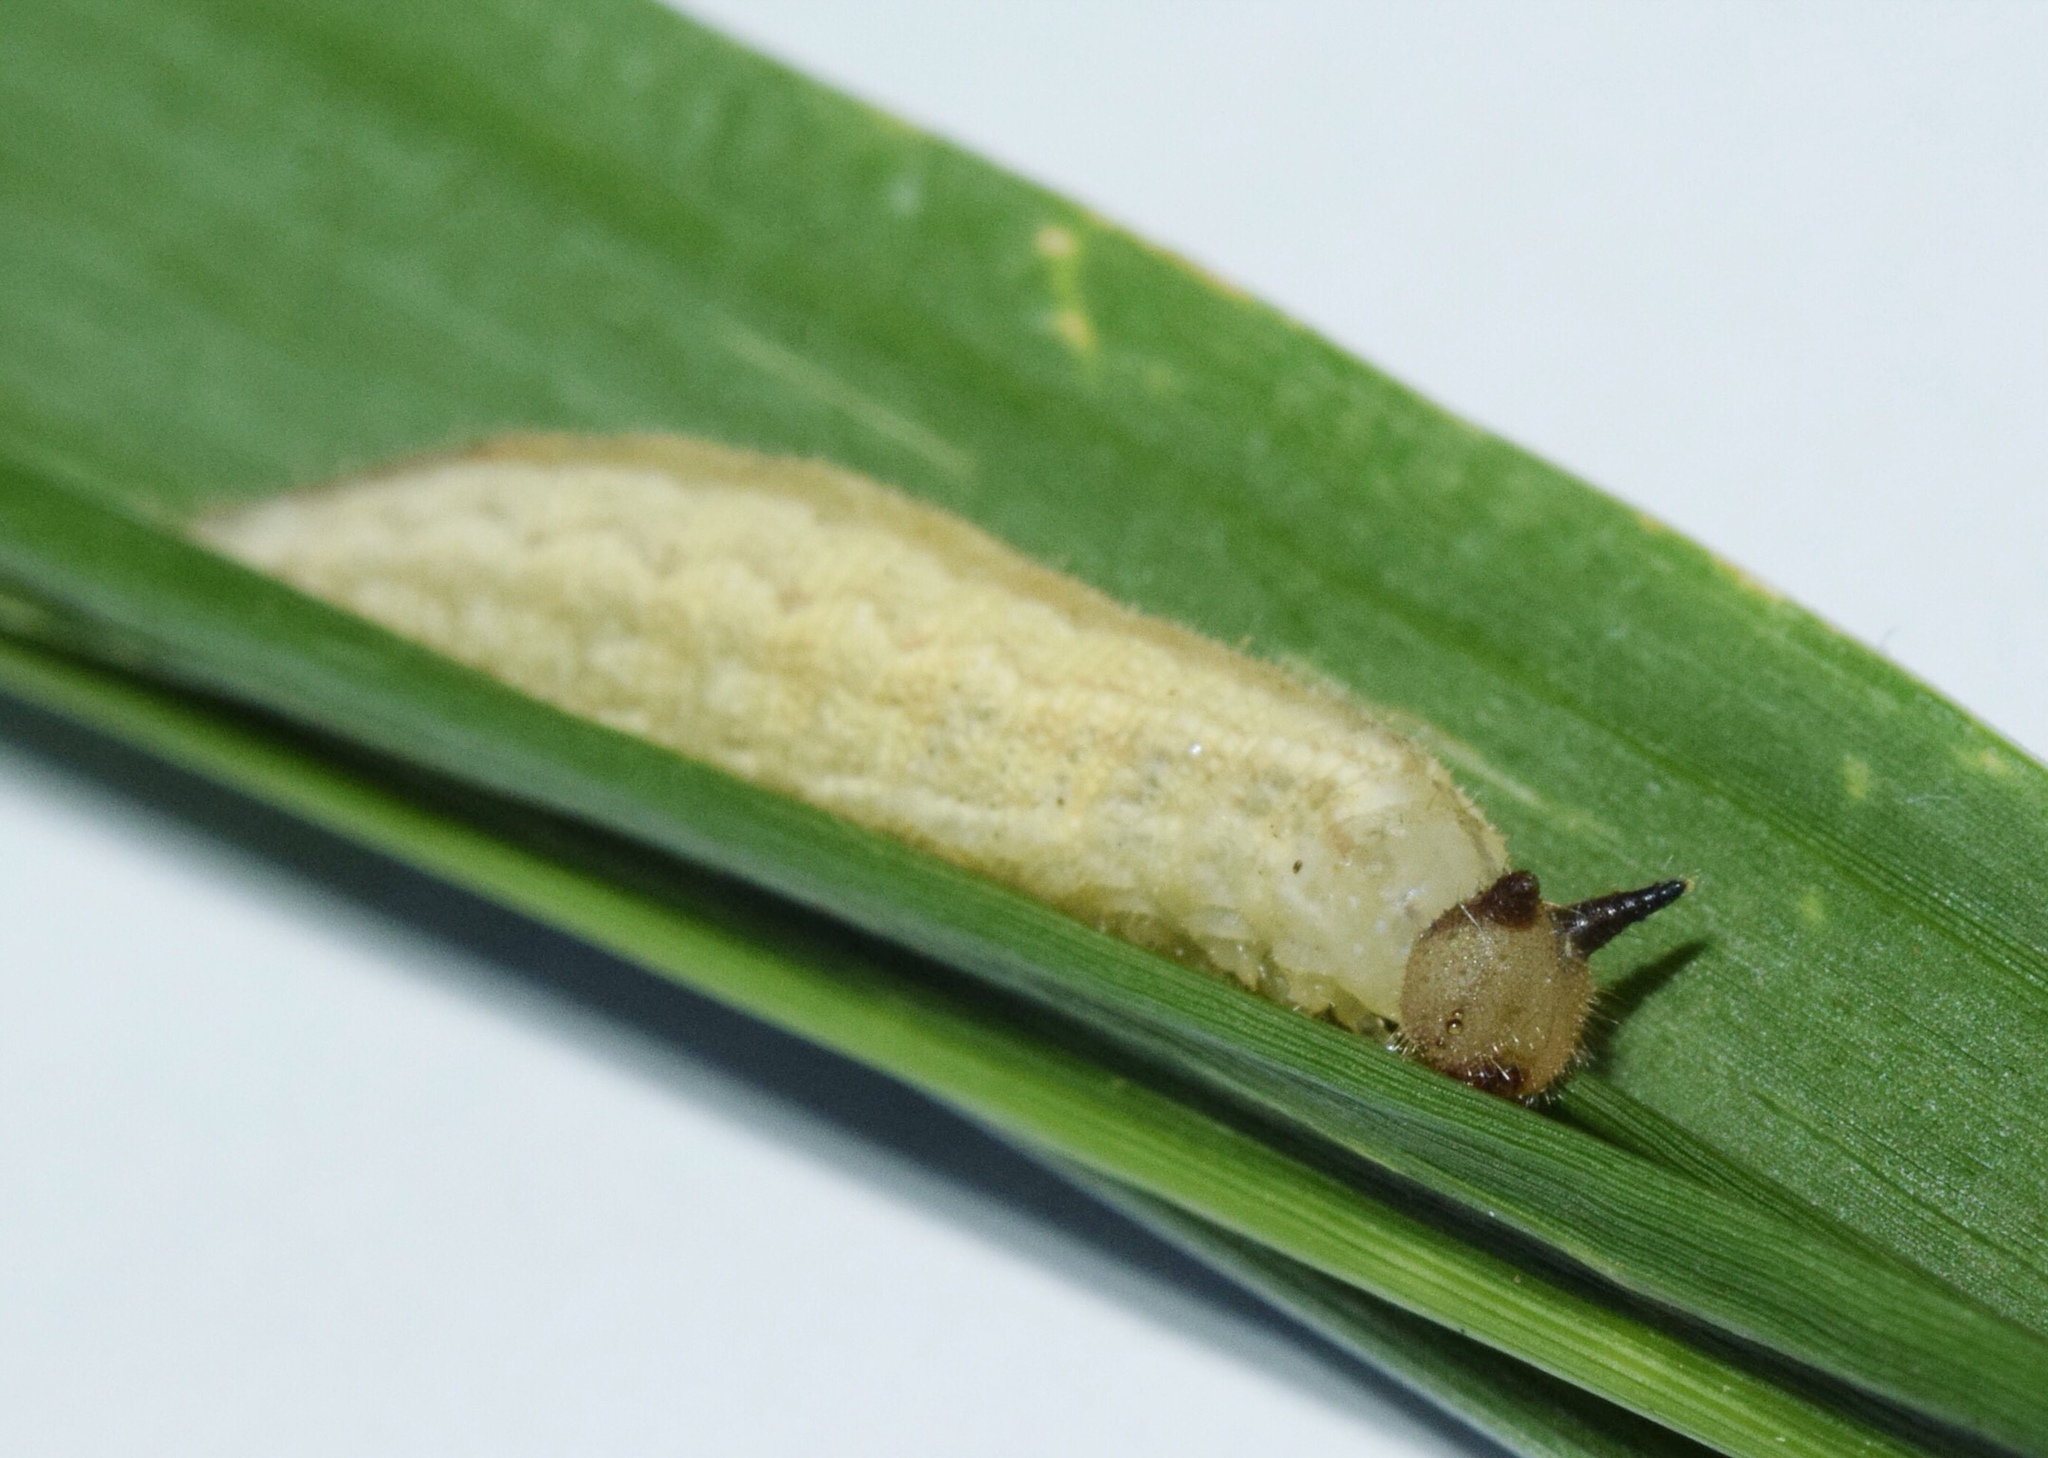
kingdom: Animalia
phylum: Arthropoda
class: Insecta
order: Lepidoptera
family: Nymphalidae
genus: Mycalesis
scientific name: Mycalesis rhacotis
